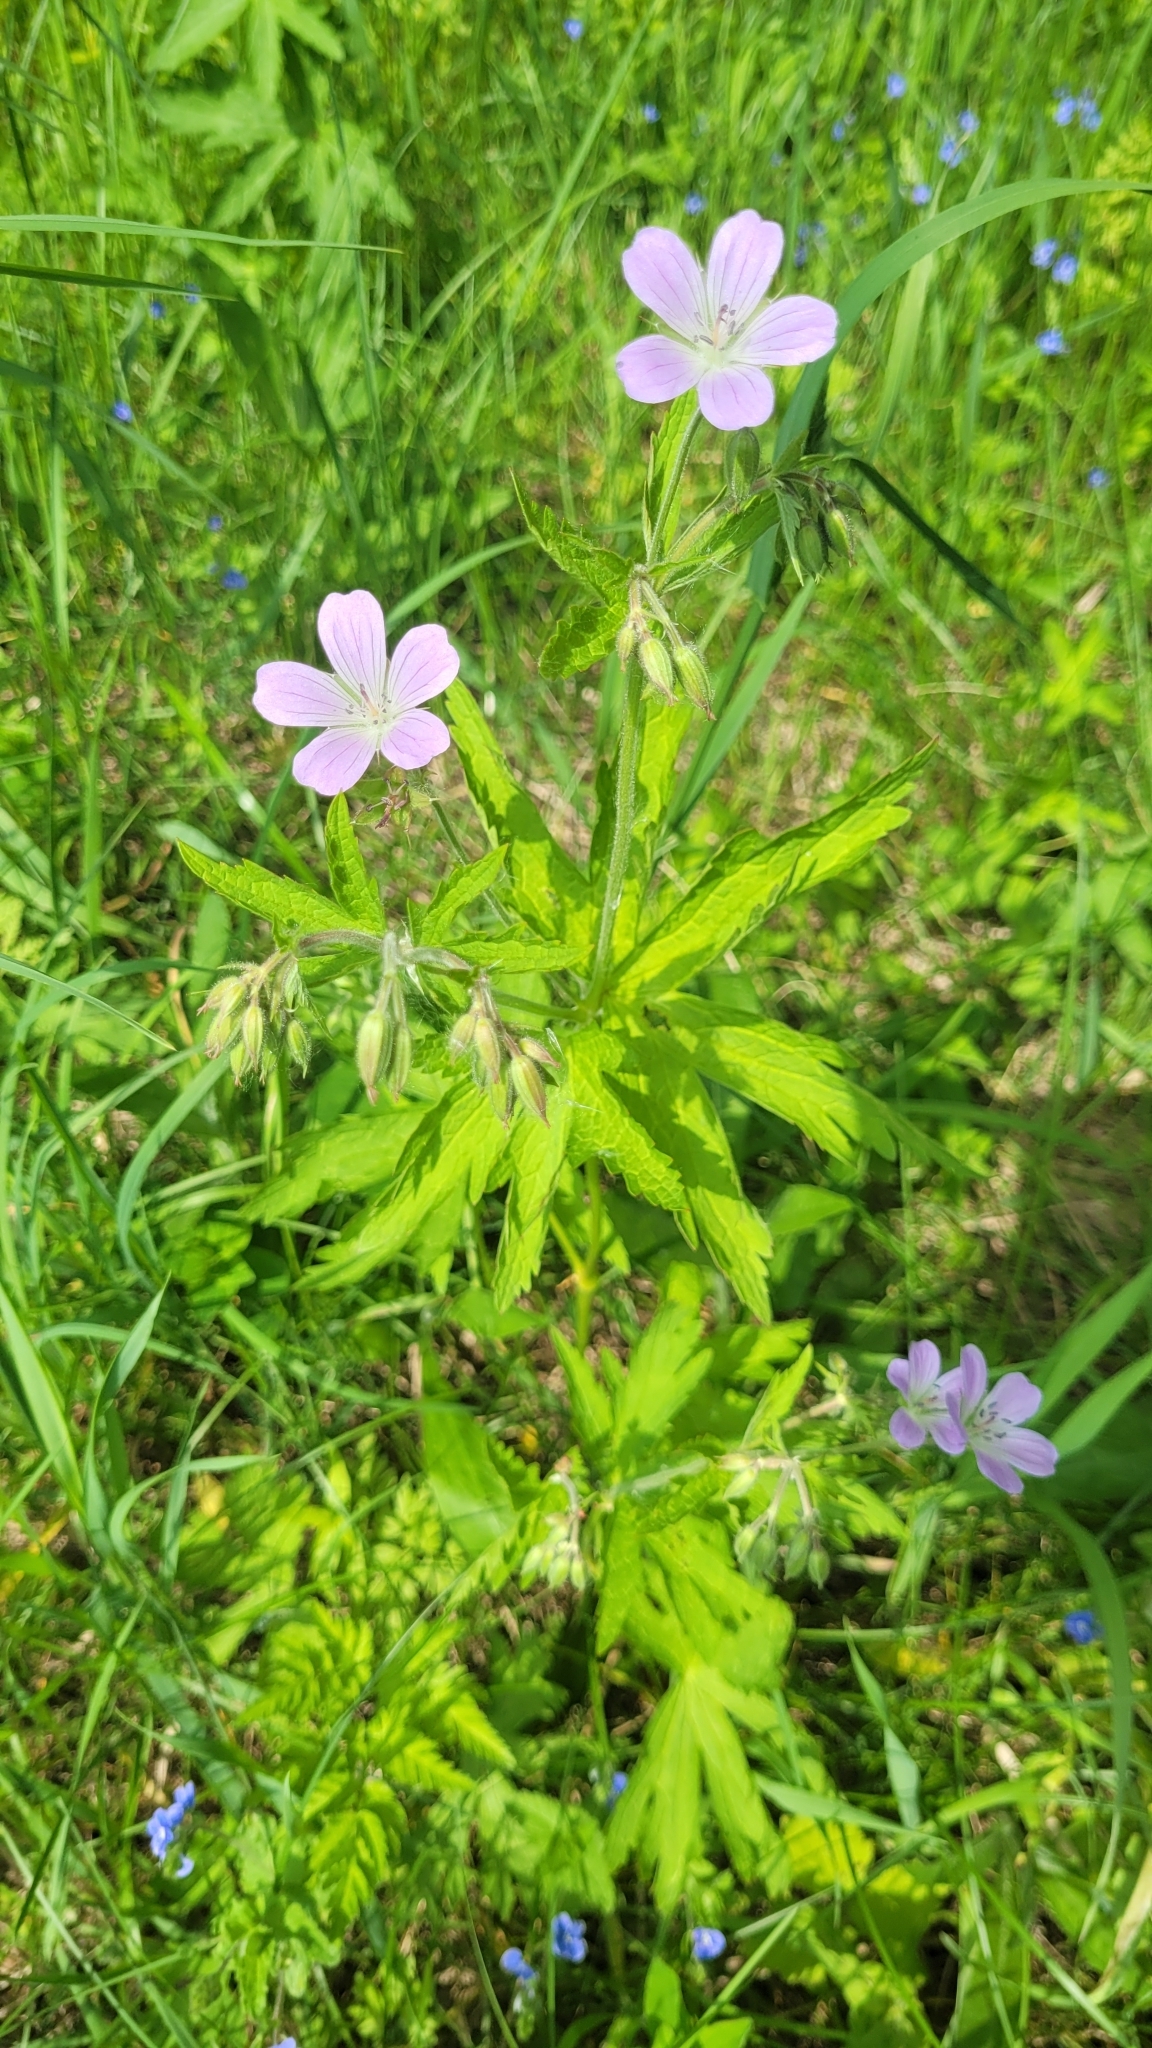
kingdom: Plantae
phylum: Tracheophyta
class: Magnoliopsida
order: Geraniales
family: Geraniaceae
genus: Geranium
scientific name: Geranium sylvaticum
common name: Wood crane's-bill
